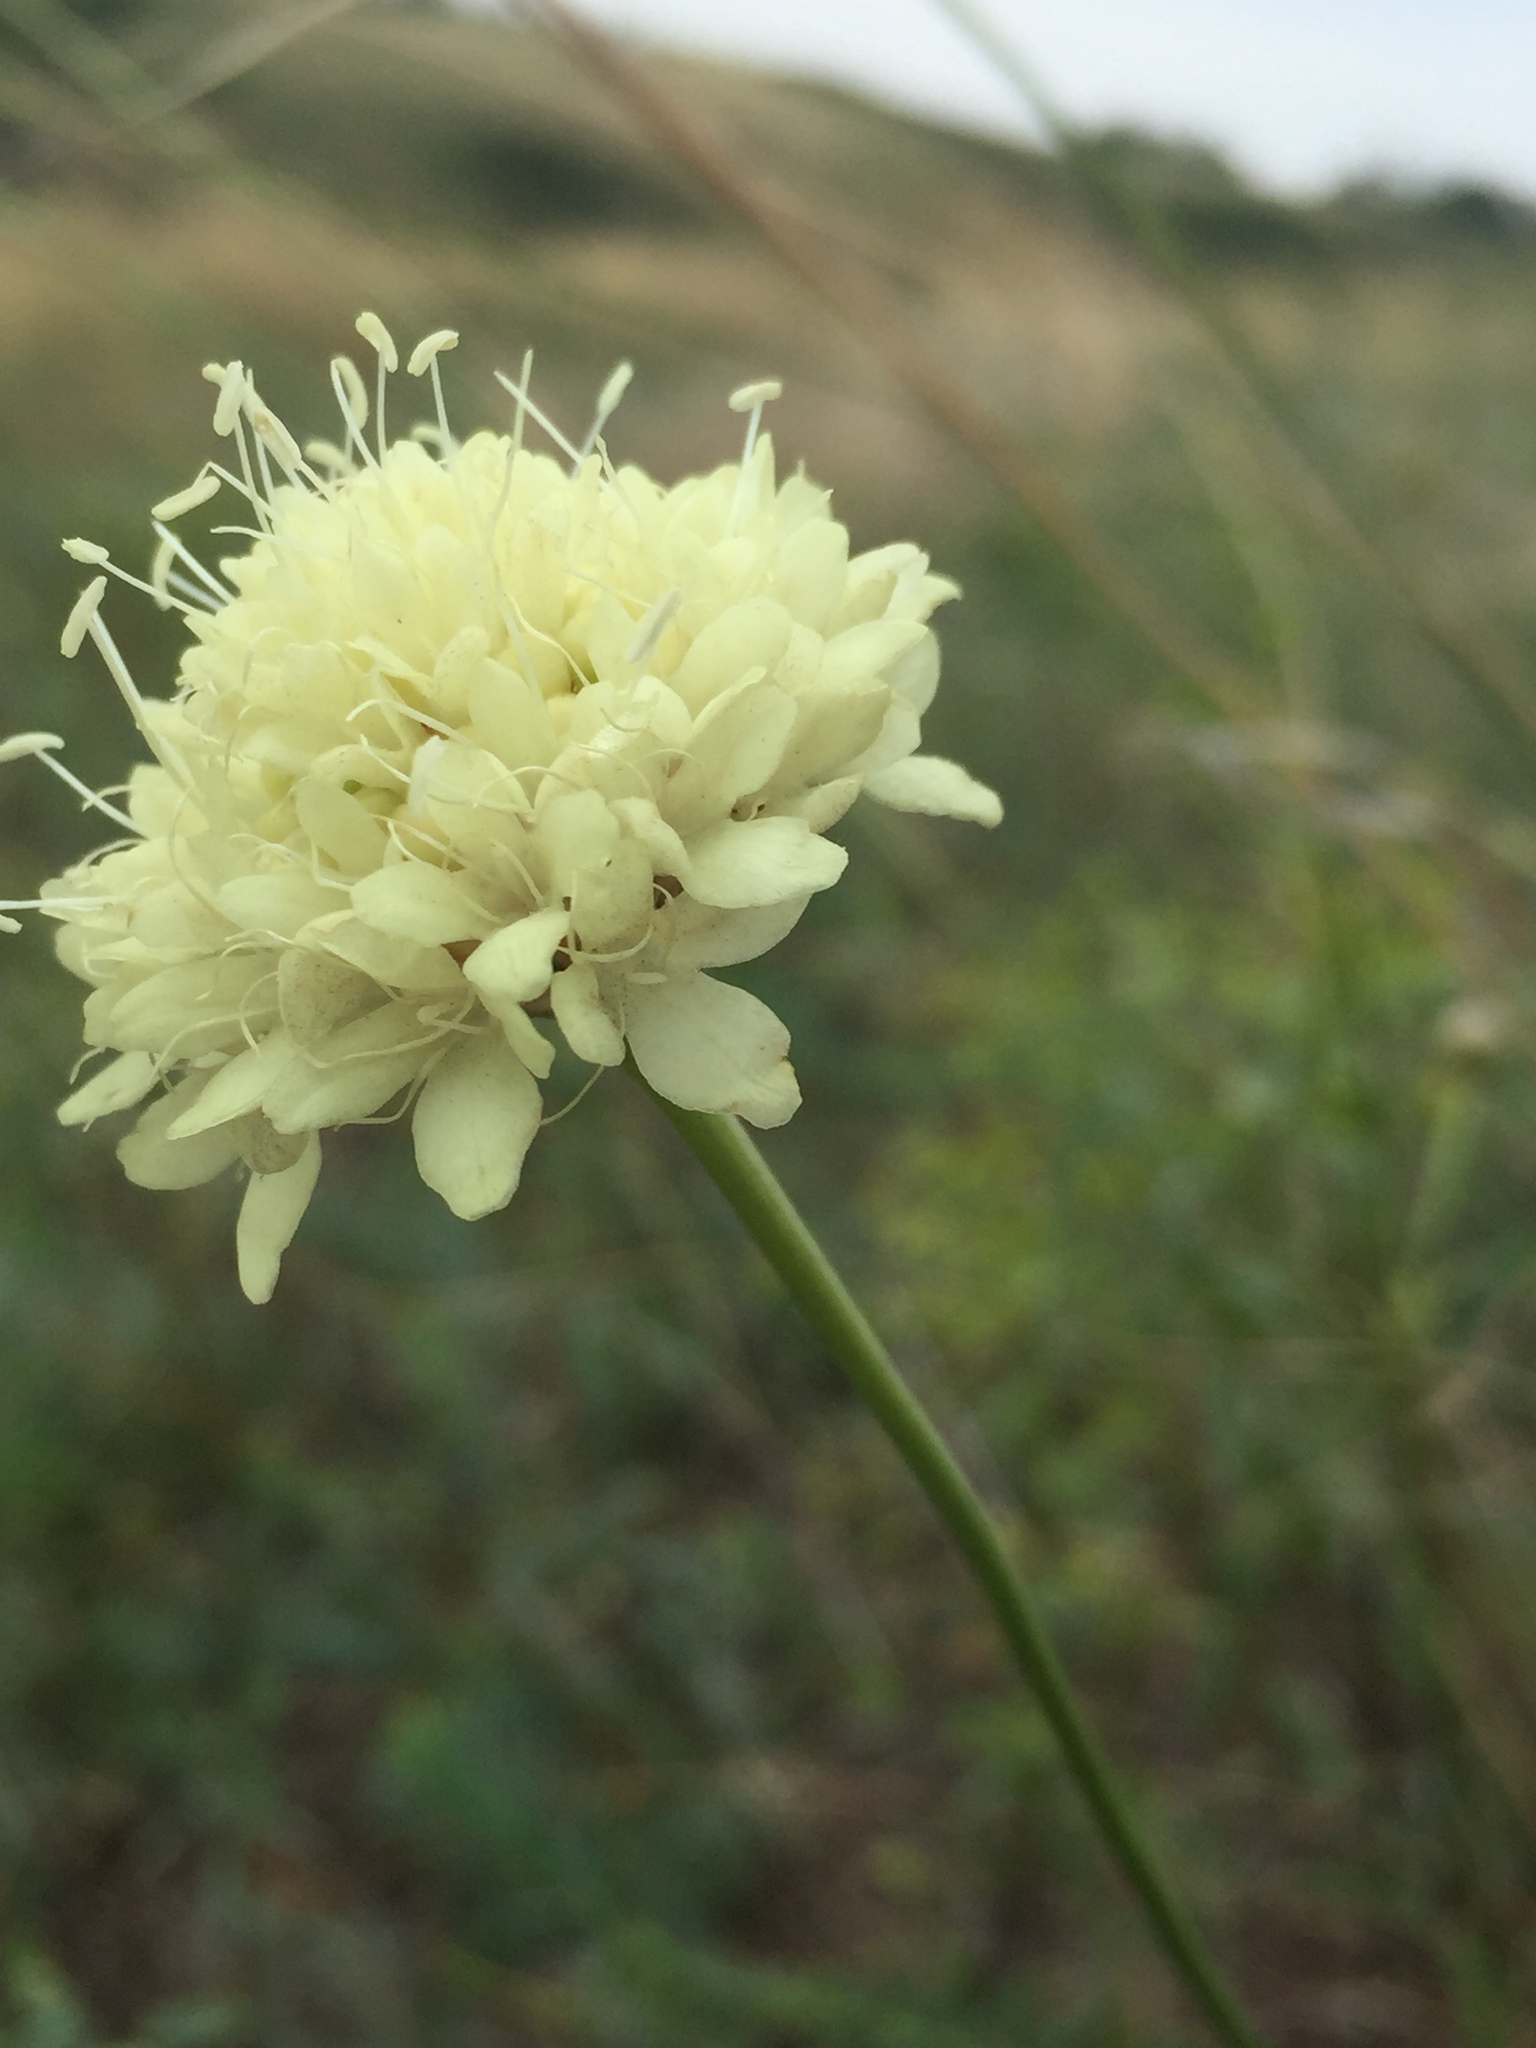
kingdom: Plantae
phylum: Tracheophyta
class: Magnoliopsida
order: Dipsacales
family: Caprifoliaceae
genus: Cephalaria
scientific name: Cephalaria uralensis
